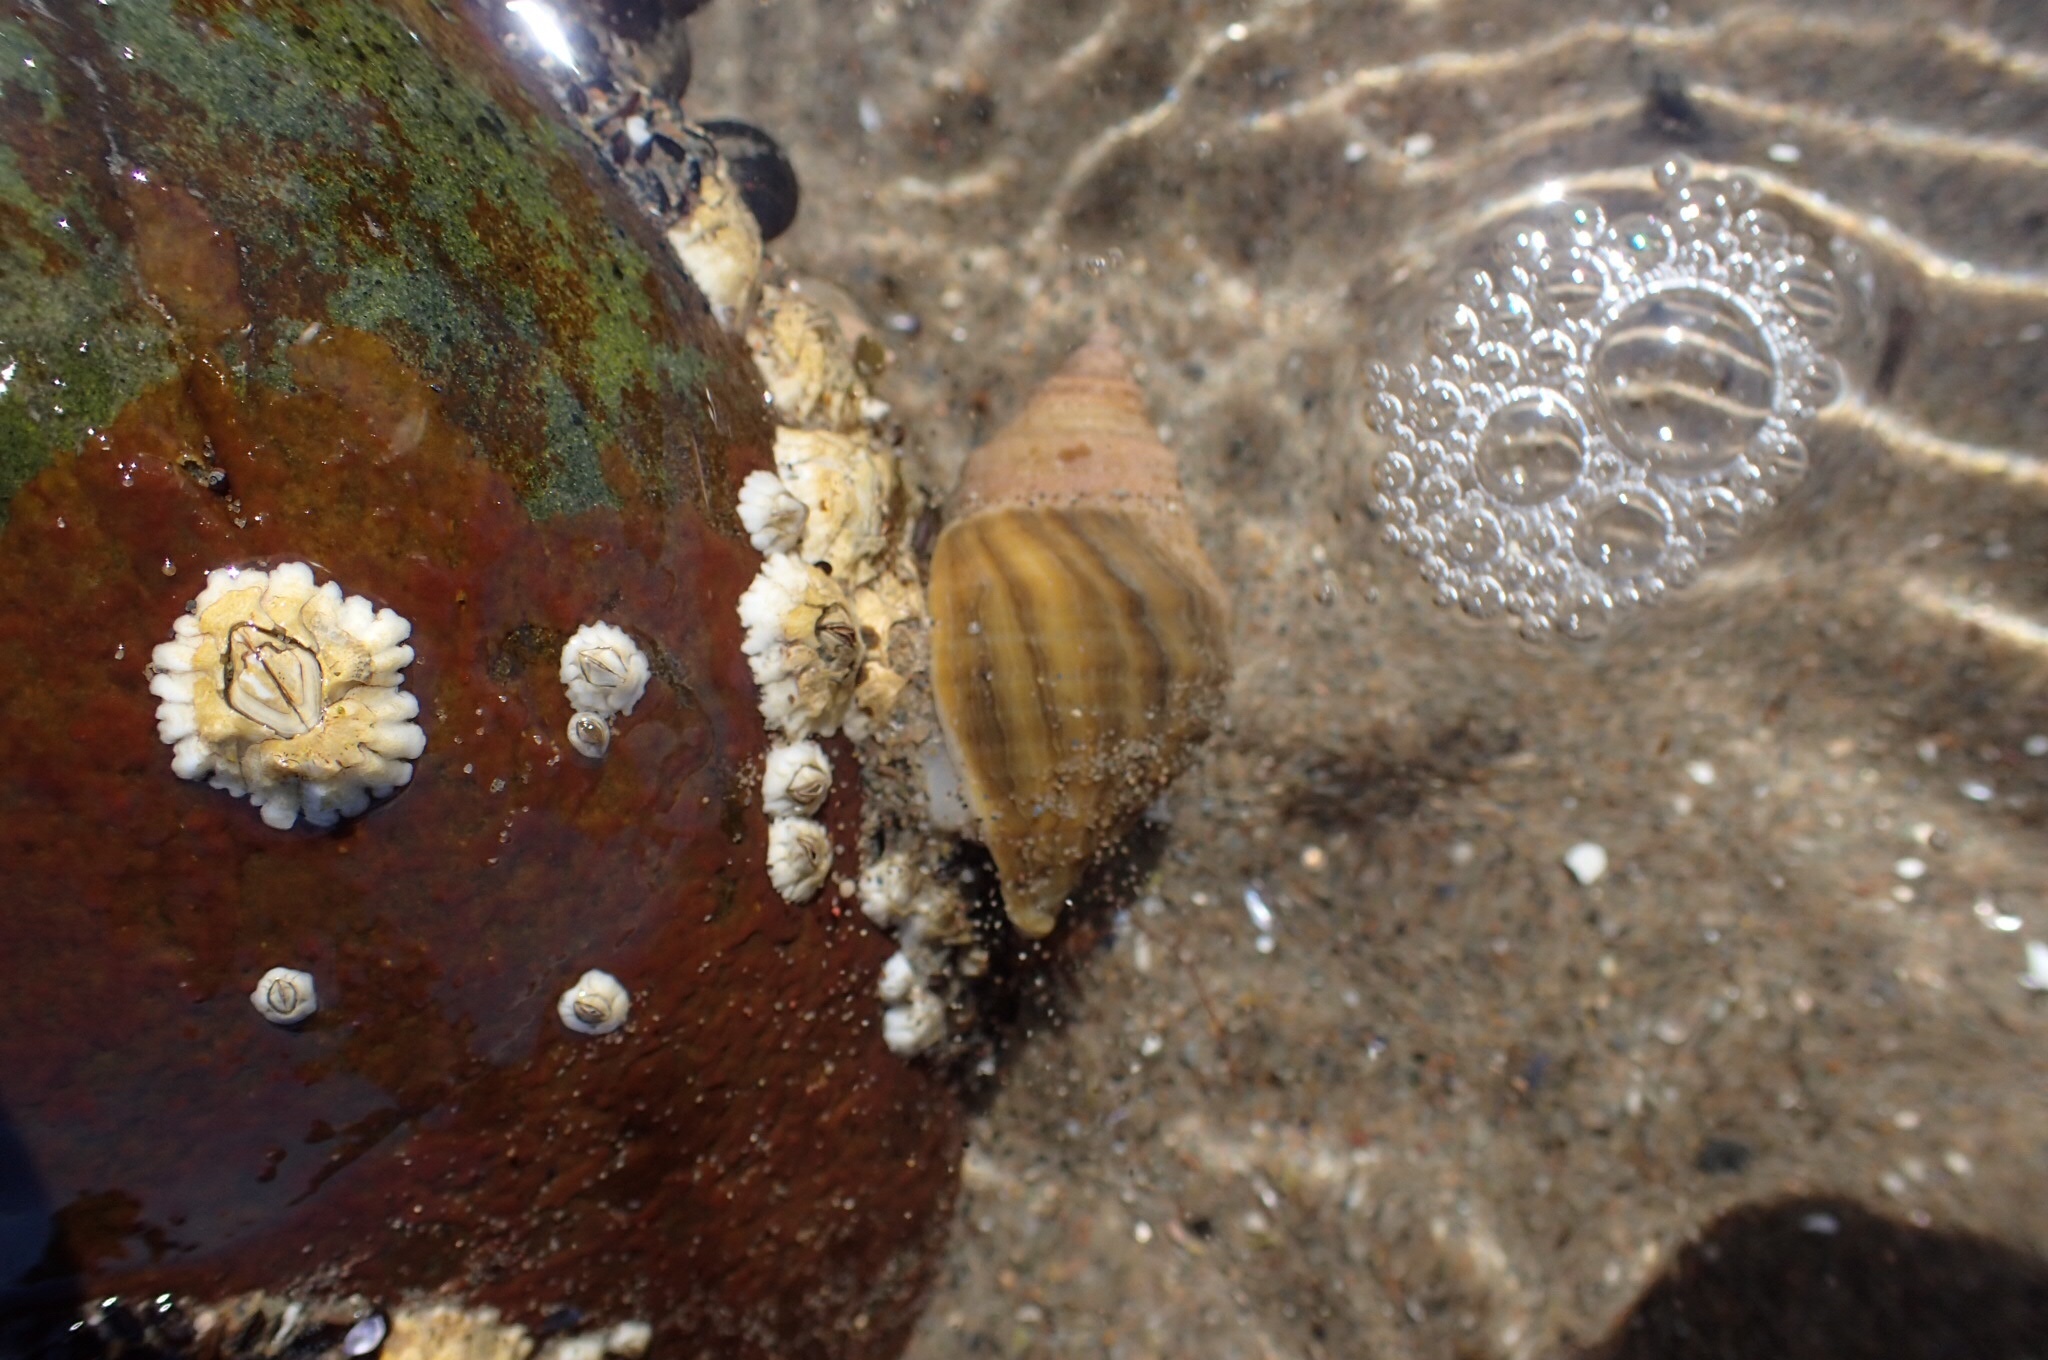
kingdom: Animalia
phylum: Mollusca
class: Gastropoda
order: Neogastropoda
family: Muricidae
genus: Nucella
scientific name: Nucella lapillus
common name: Dog whelk
